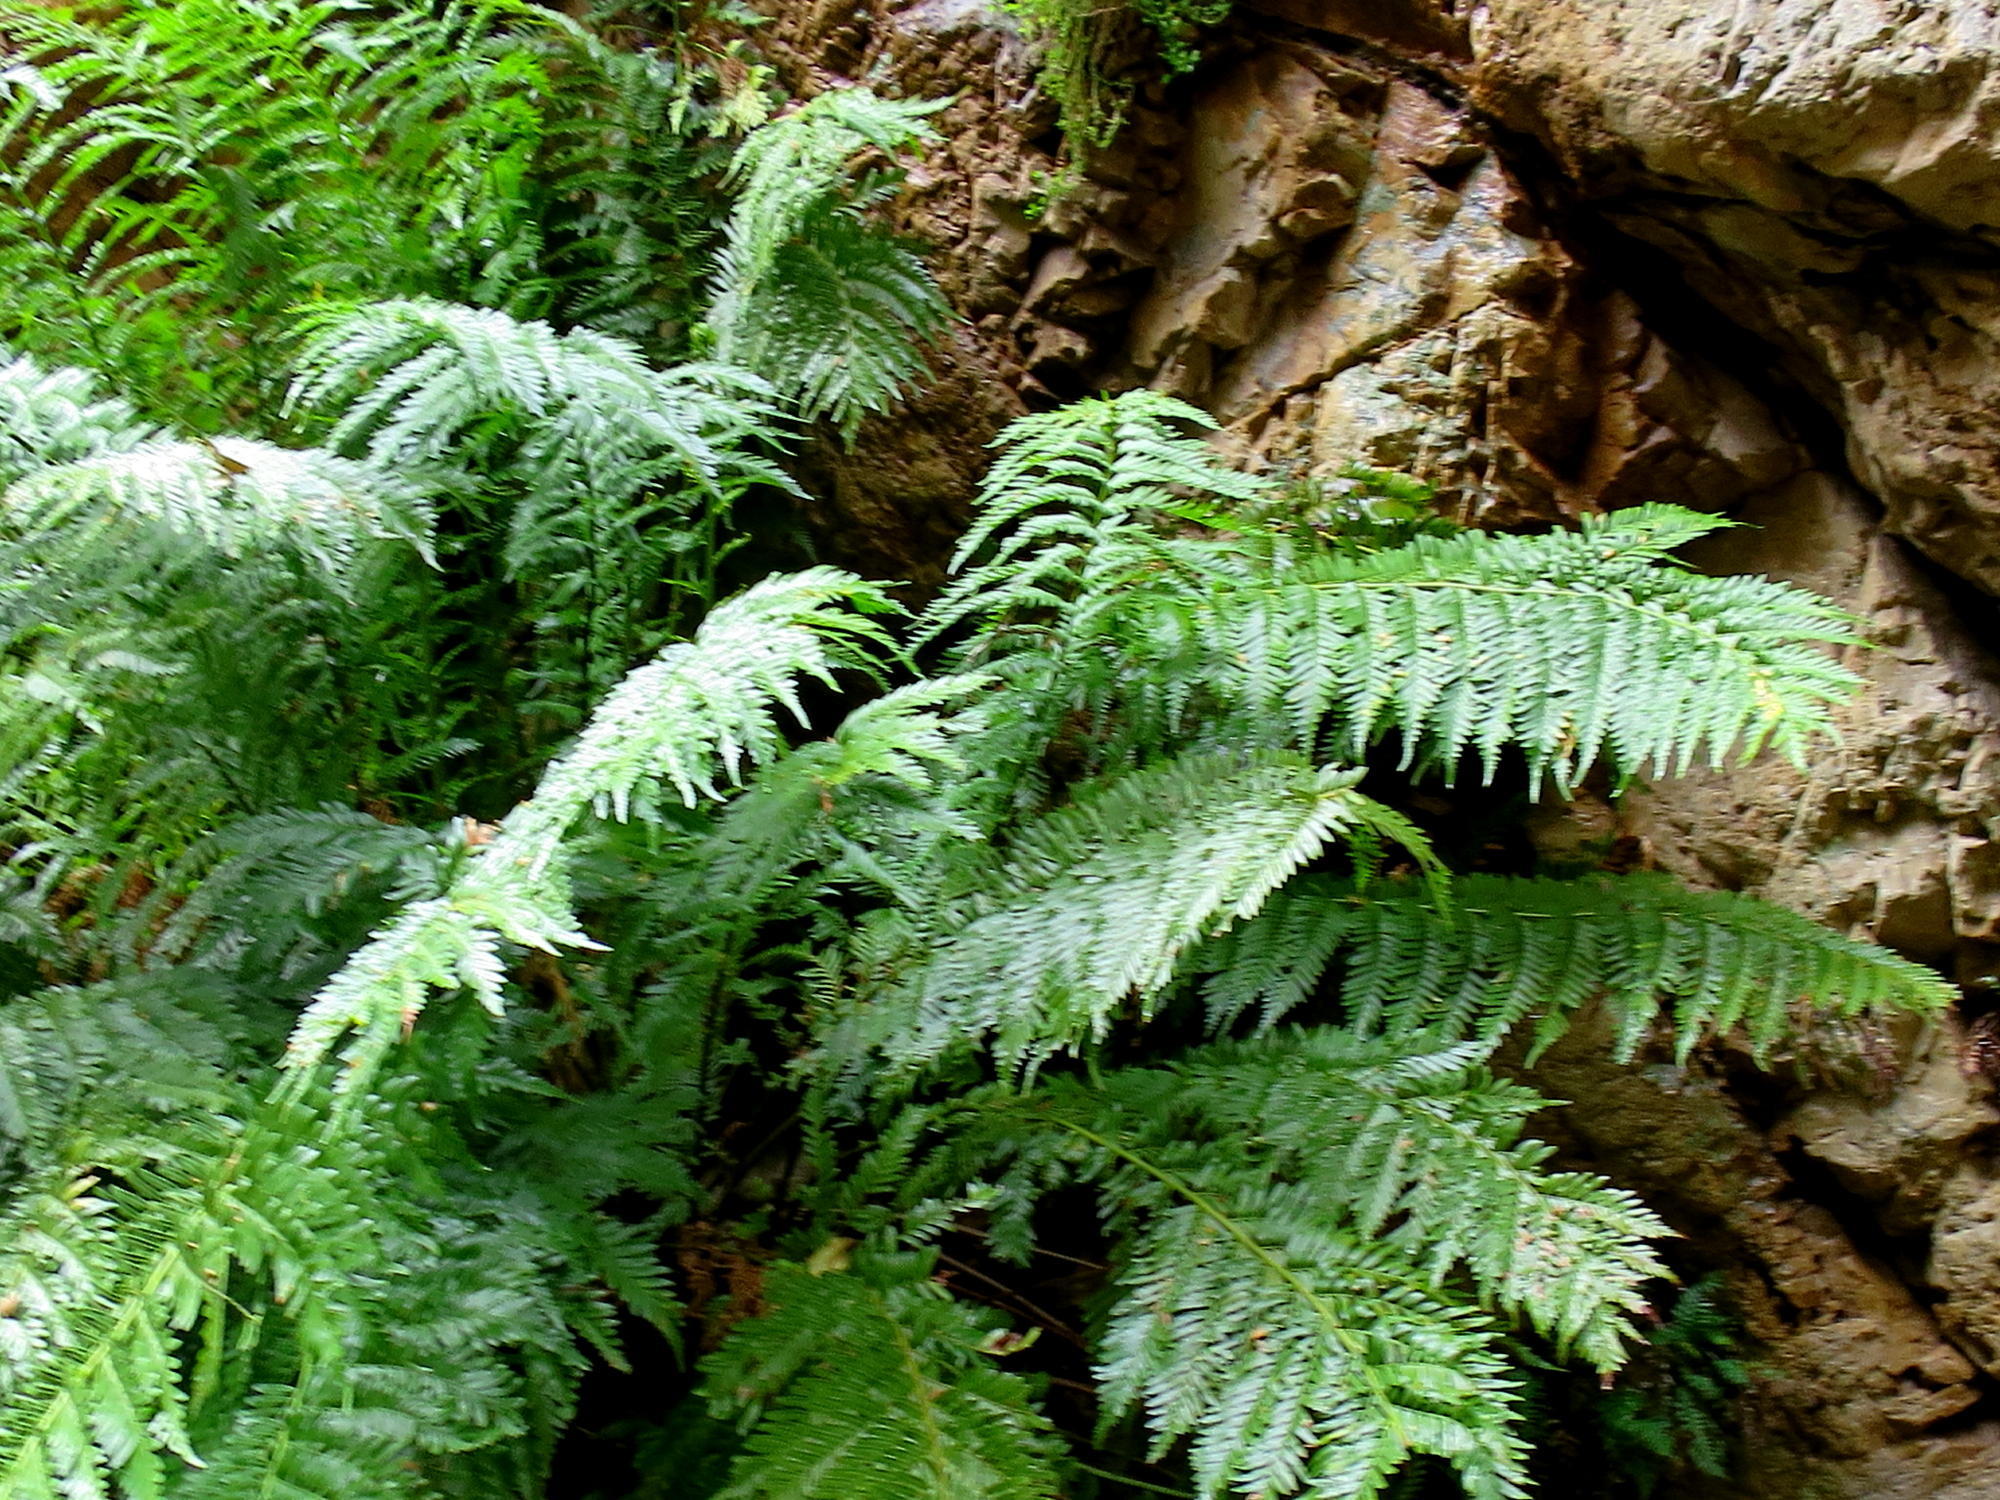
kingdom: Plantae
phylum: Tracheophyta
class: Polypodiopsida
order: Osmundales
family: Osmundaceae
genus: Todea
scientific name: Todea barbara
